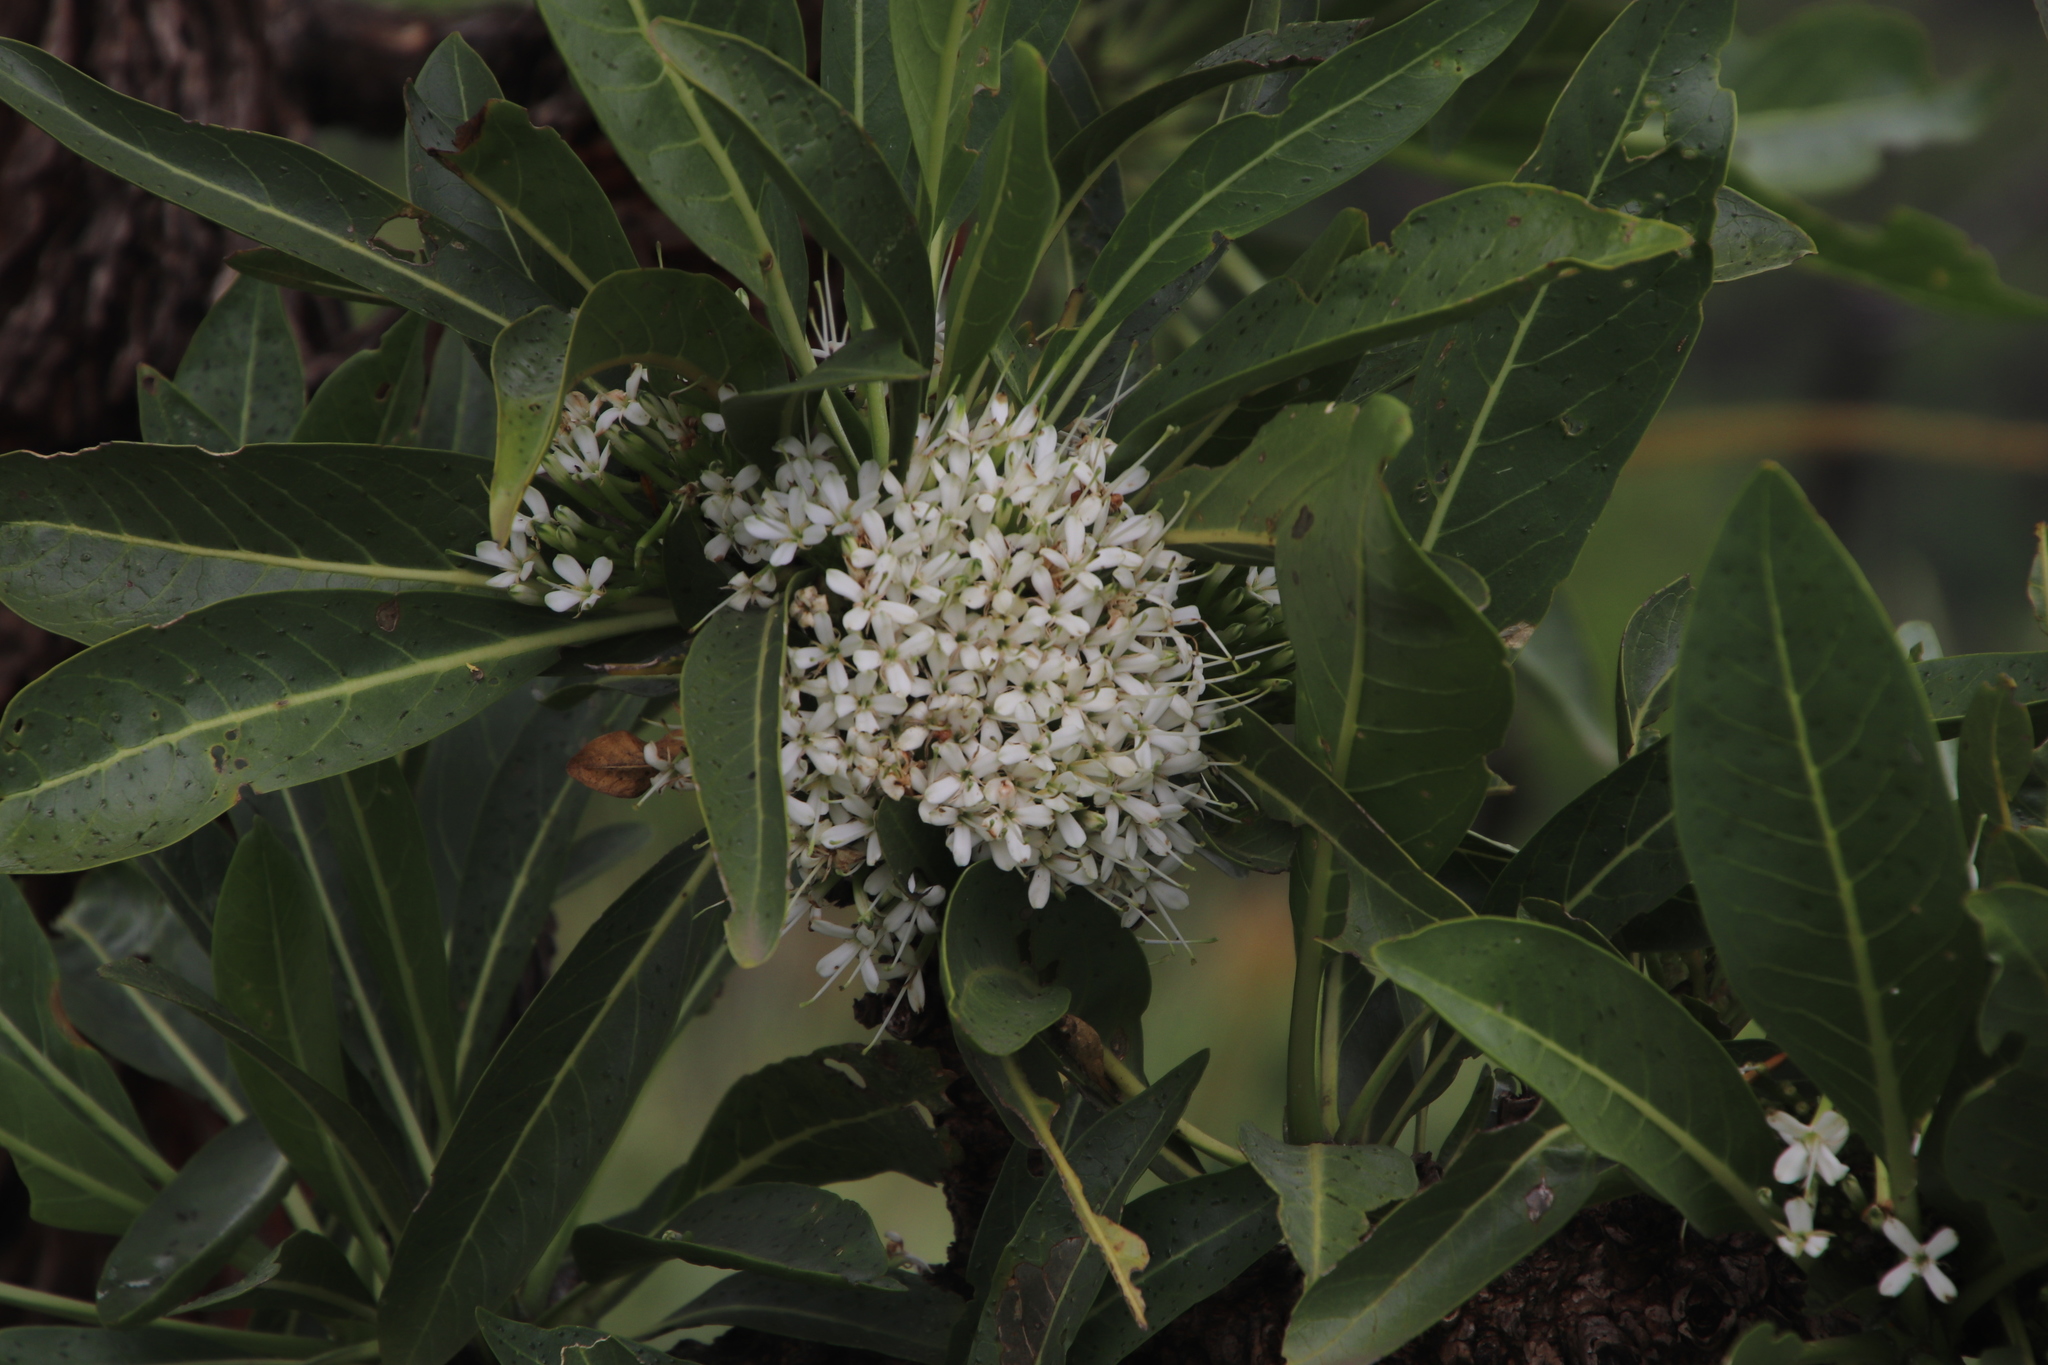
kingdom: Plantae
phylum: Tracheophyta
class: Magnoliopsida
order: Gentianales
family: Rubiaceae
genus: Pavetta
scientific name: Pavetta edentula
